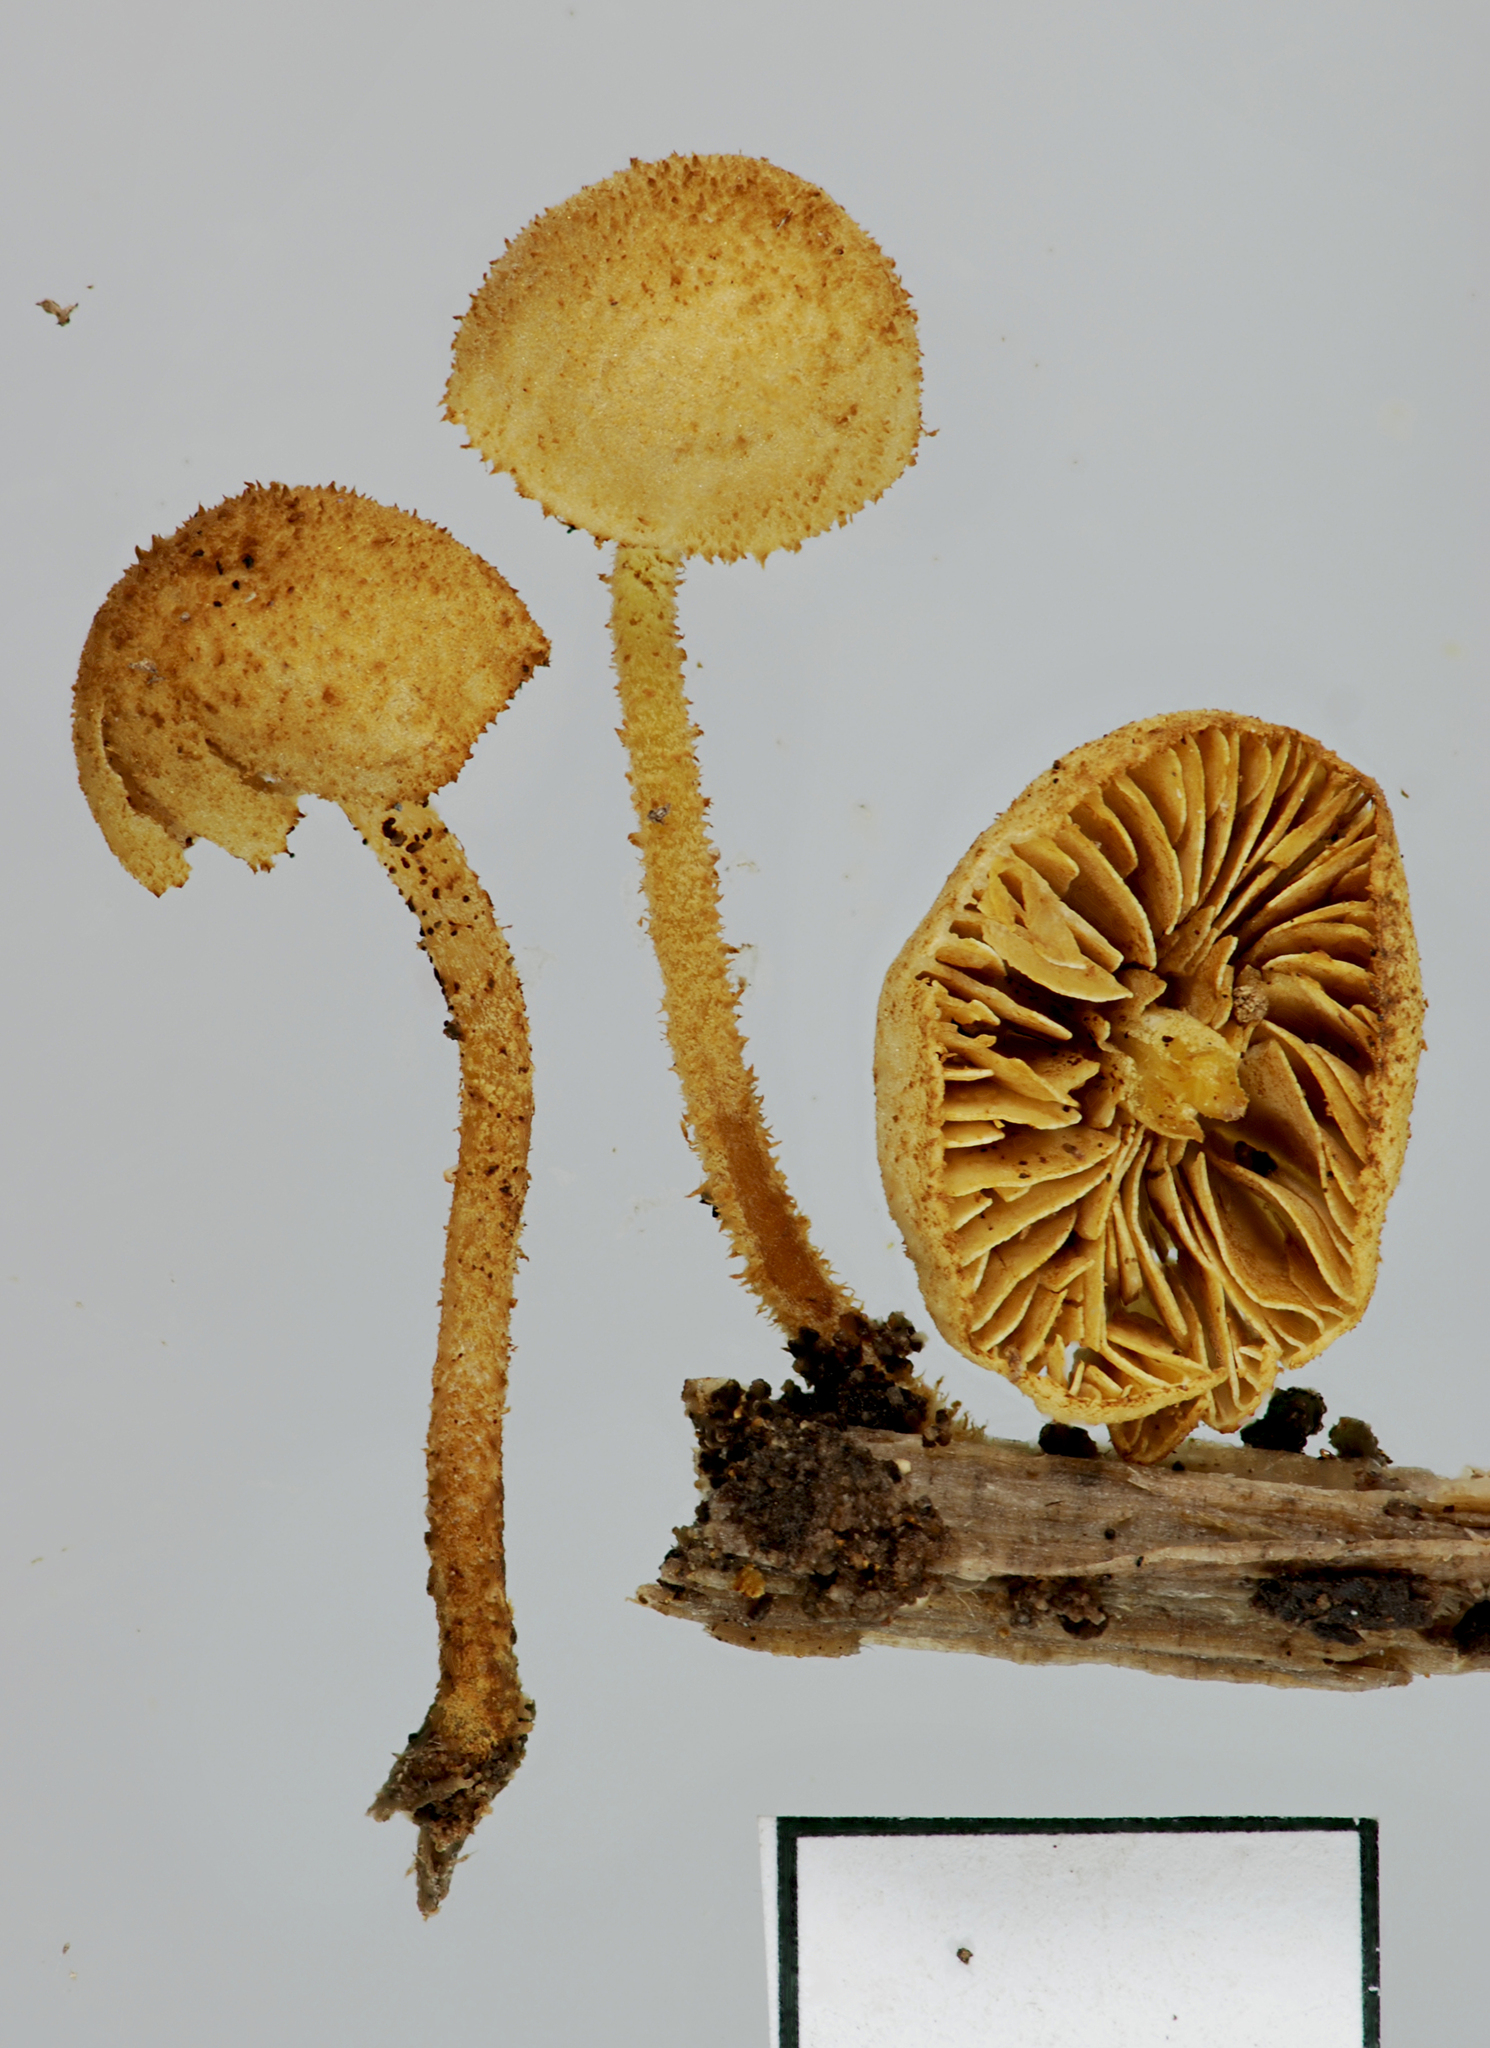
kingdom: Fungi
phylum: Basidiomycota
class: Agaricomycetes
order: Agaricales
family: Tubariaceae
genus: Flammulaster
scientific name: Flammulaster ciliatus
